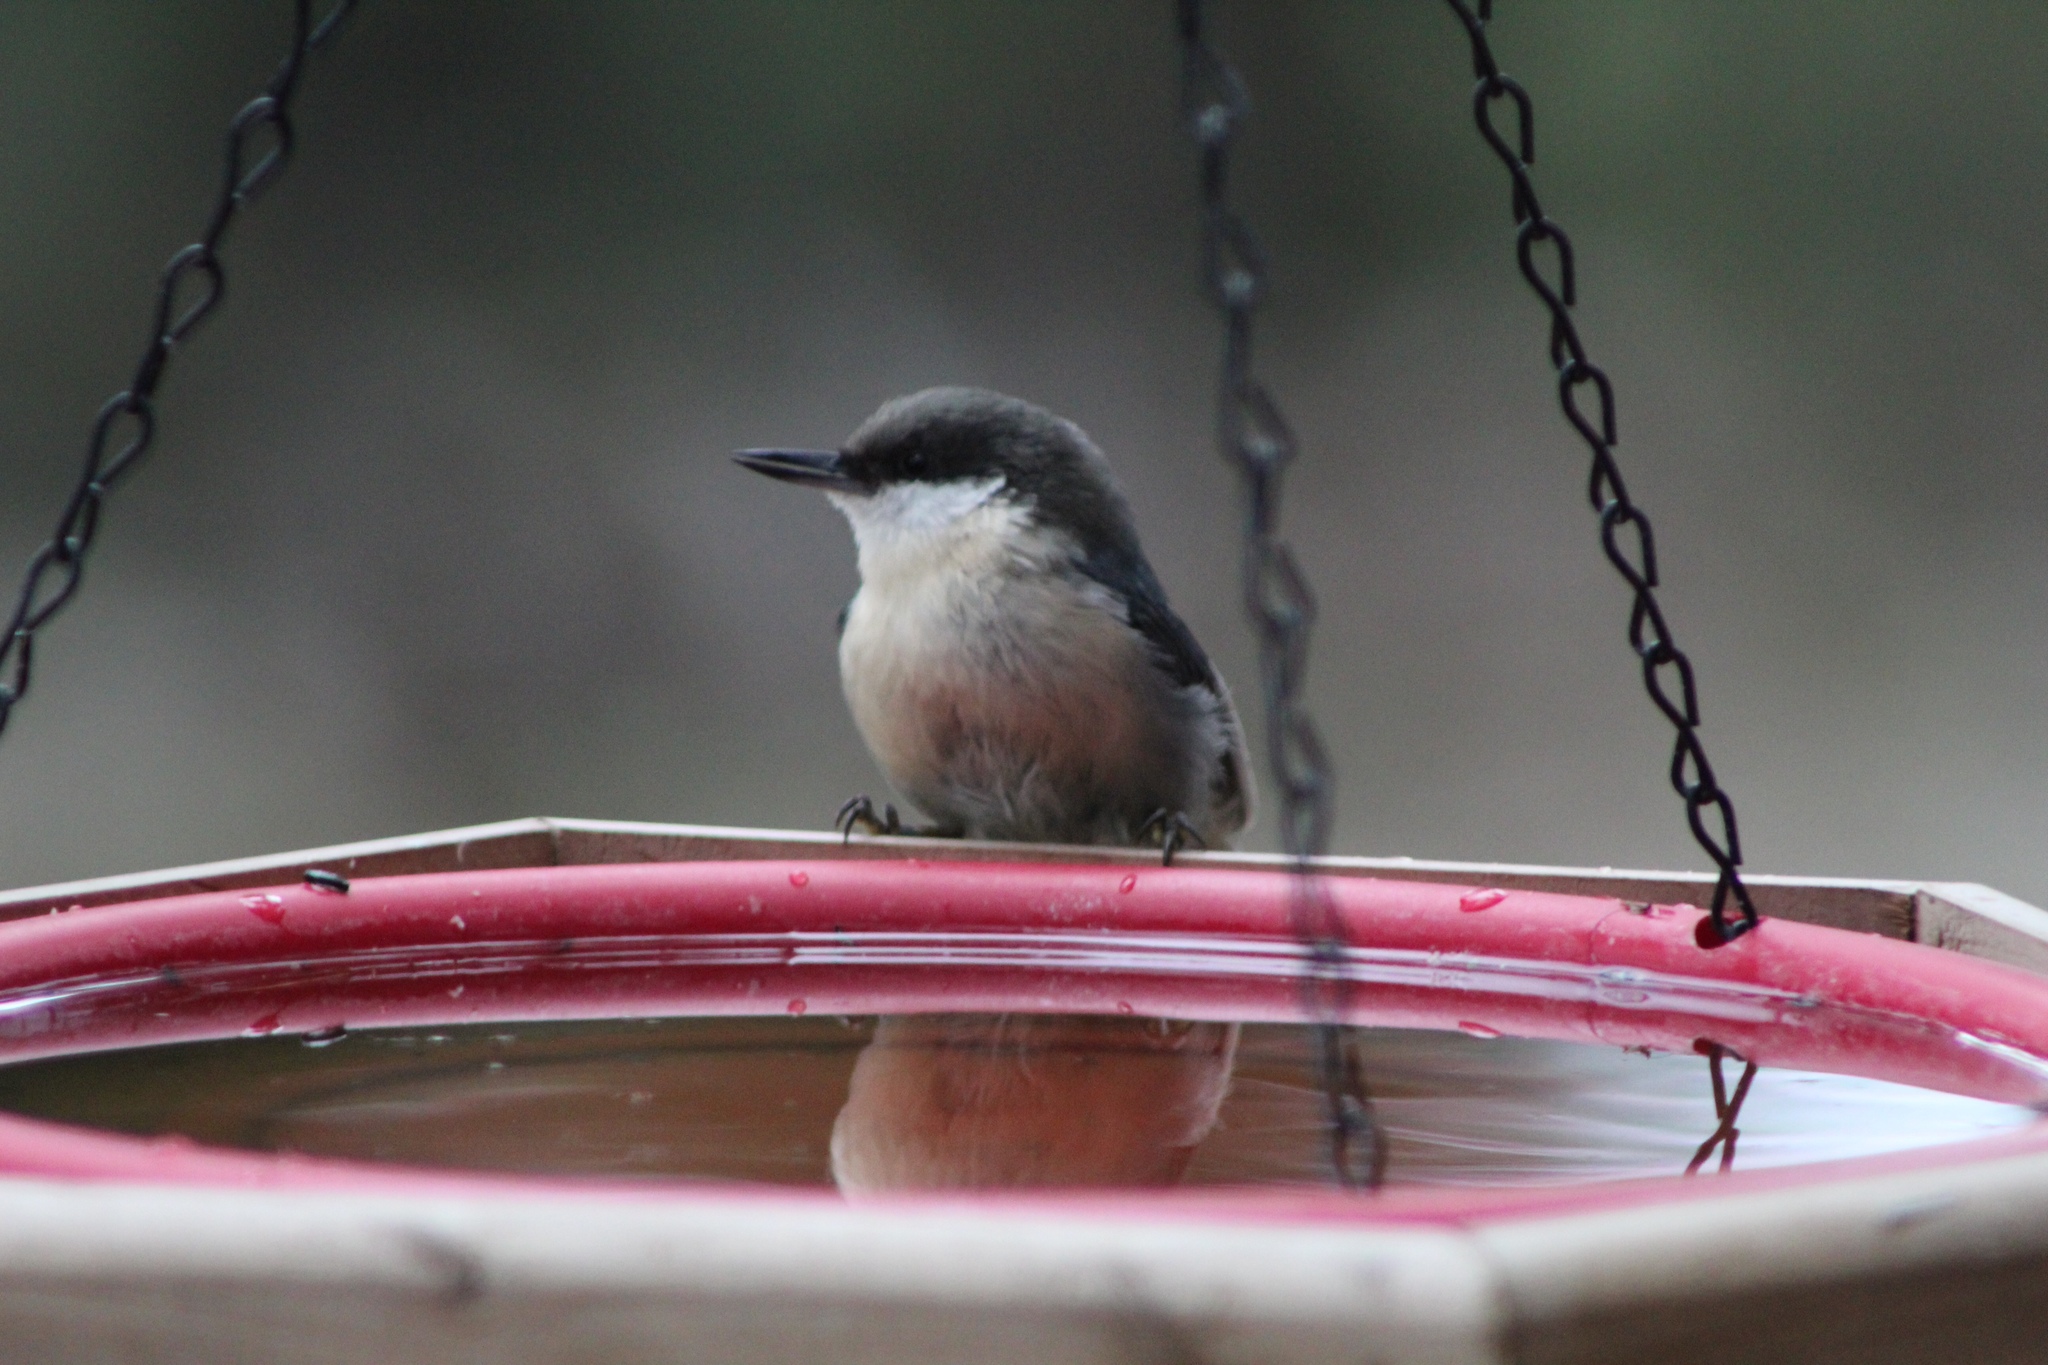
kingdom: Animalia
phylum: Chordata
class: Aves
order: Passeriformes
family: Sittidae
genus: Sitta
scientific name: Sitta pygmaea
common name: Pygmy nuthatch
